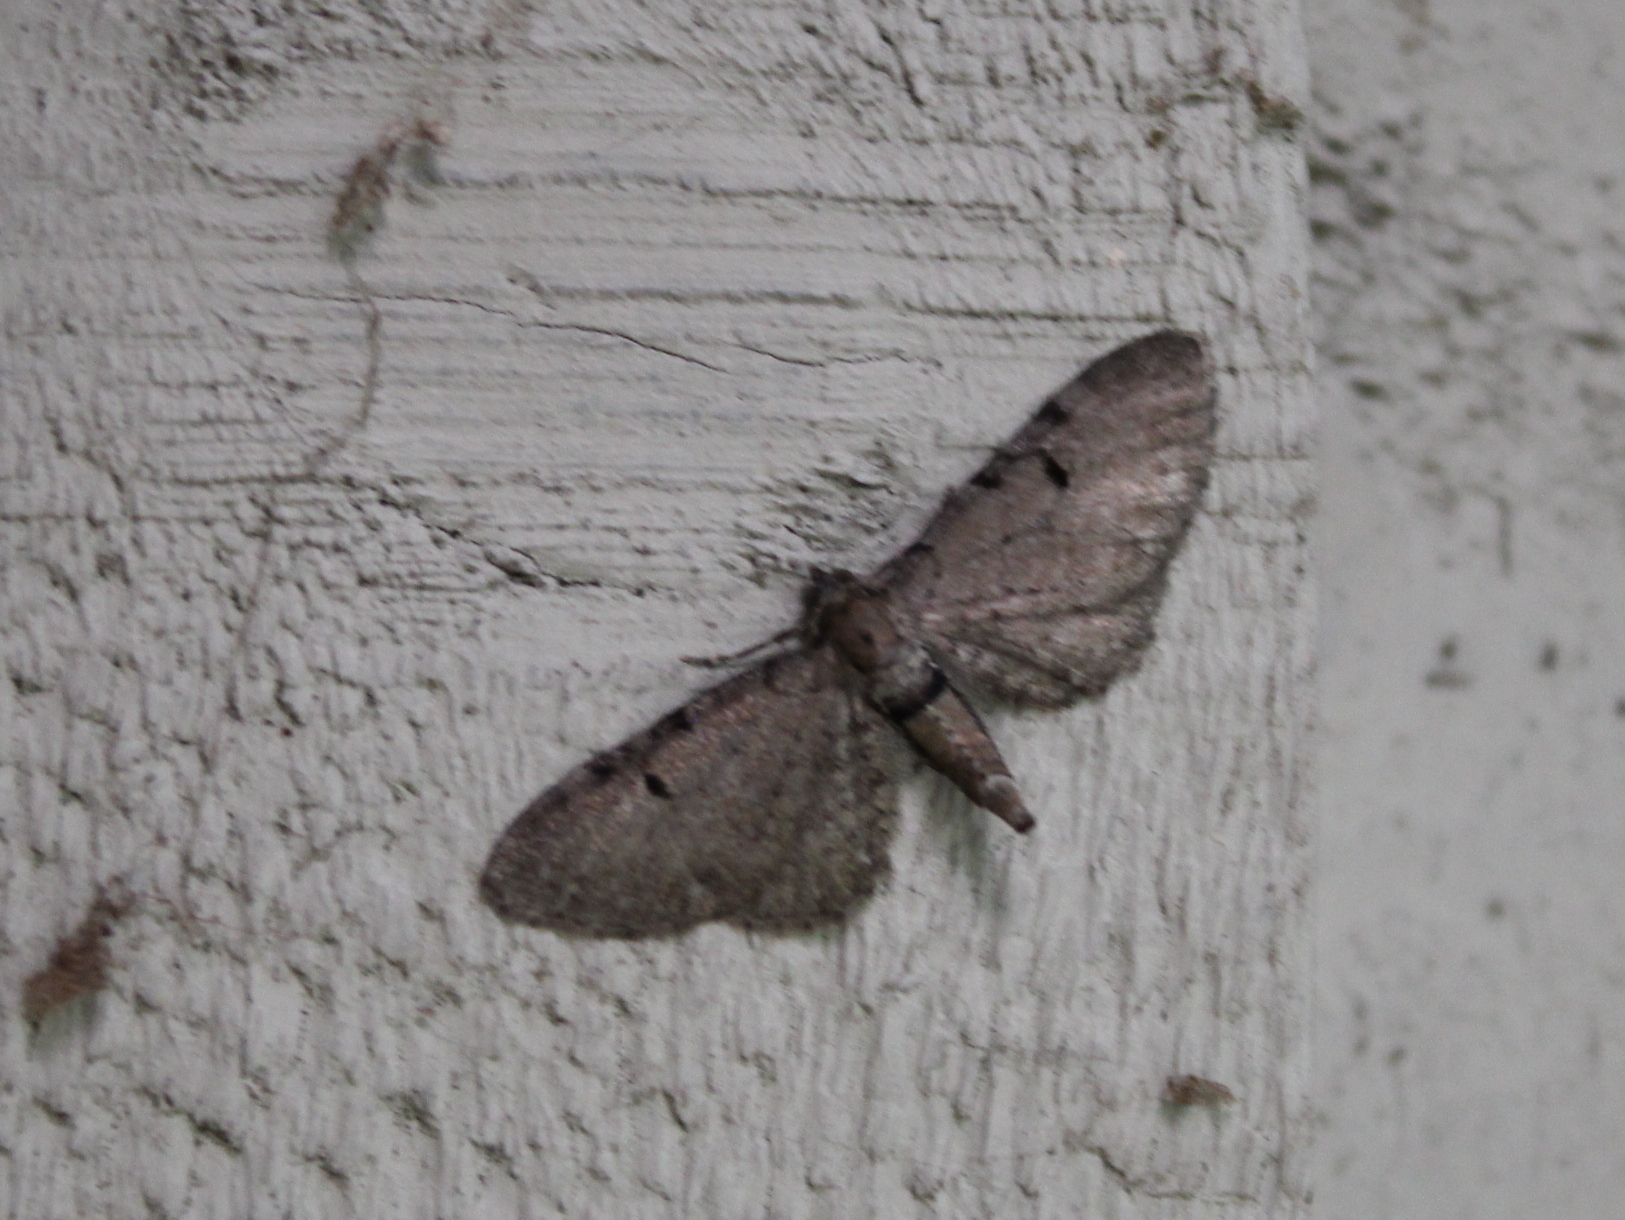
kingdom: Animalia
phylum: Arthropoda
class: Insecta
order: Lepidoptera
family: Geometridae
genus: Eupithecia
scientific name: Eupithecia absinthiata
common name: Wormwood pug
